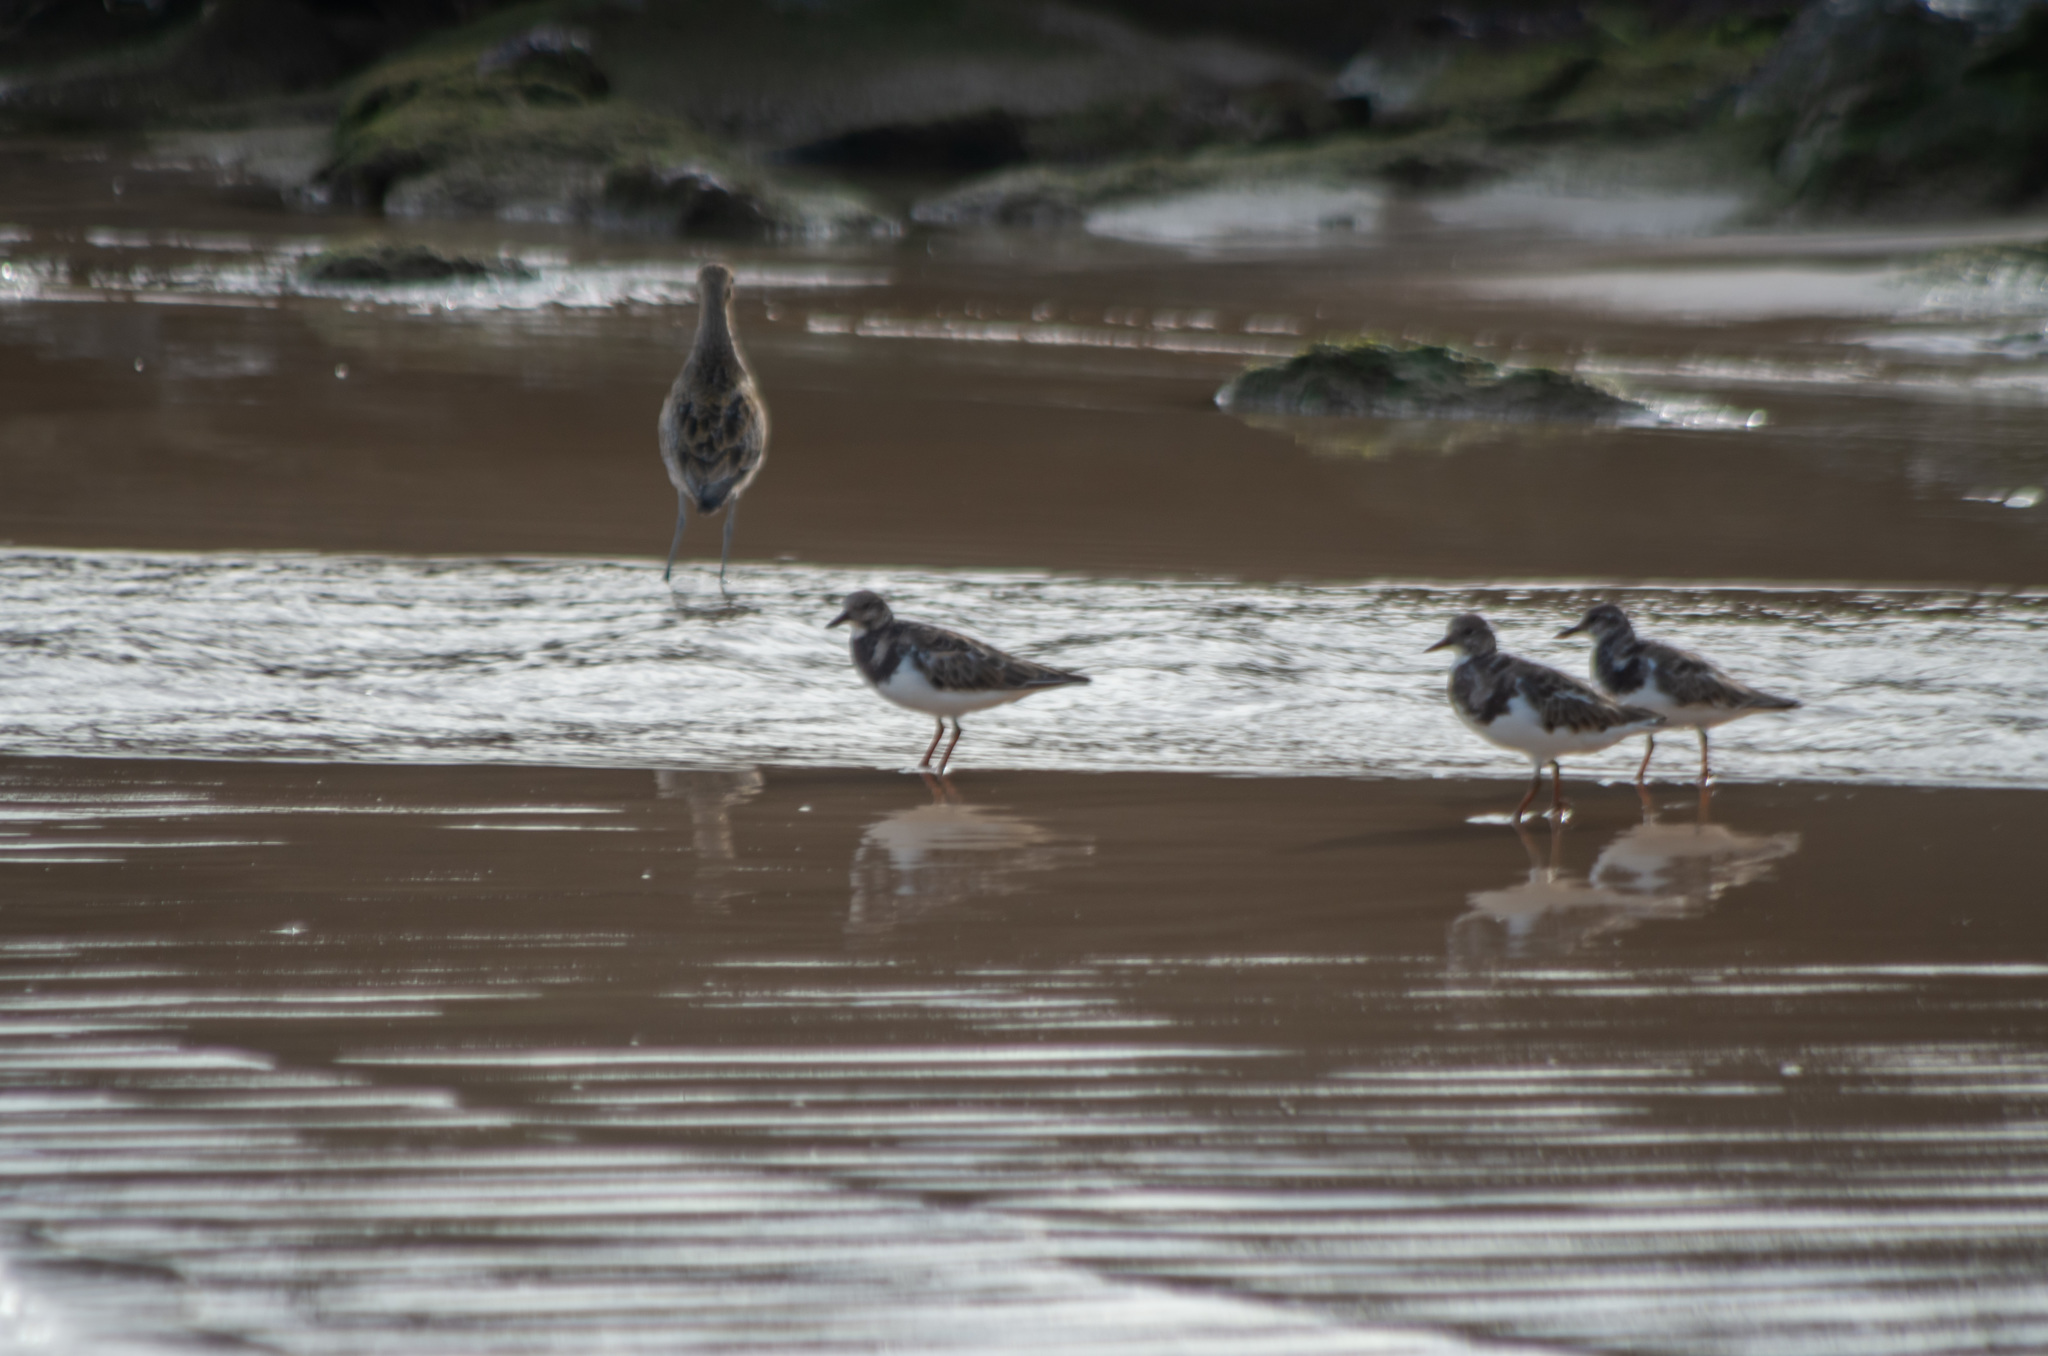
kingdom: Animalia
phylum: Chordata
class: Aves
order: Charadriiformes
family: Scolopacidae
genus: Arenaria
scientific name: Arenaria interpres
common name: Ruddy turnstone
